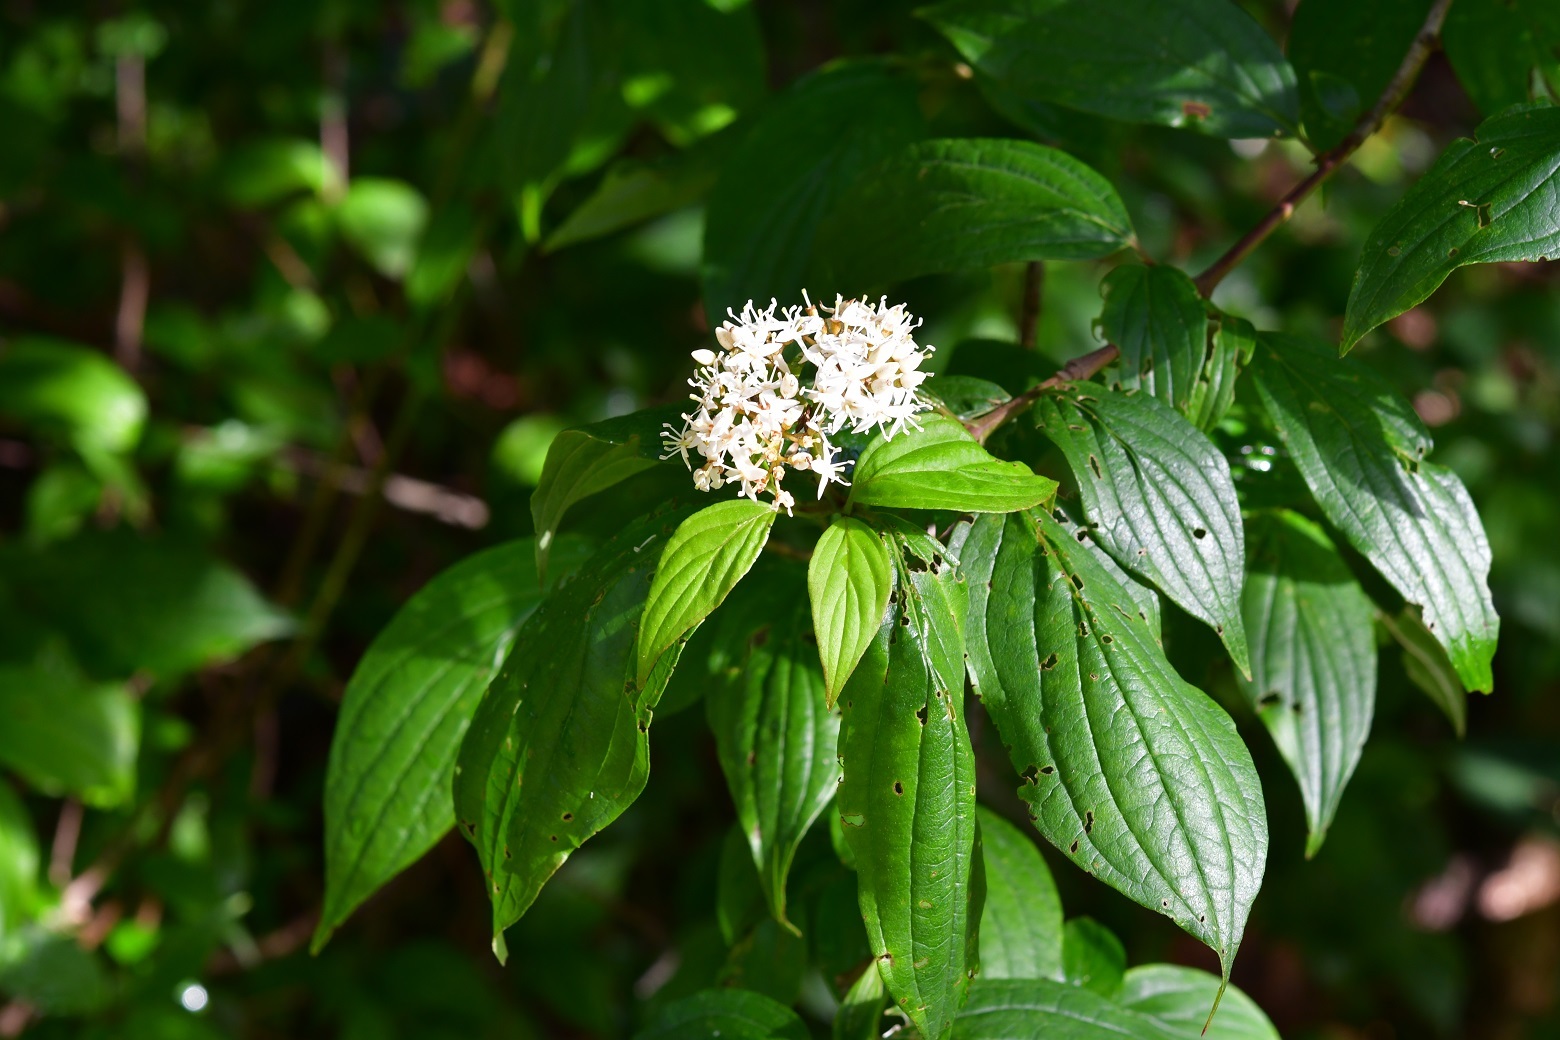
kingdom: Plantae
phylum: Tracheophyta
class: Magnoliopsida
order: Cornales
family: Cornaceae
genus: Cornus
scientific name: Cornus excelsa
